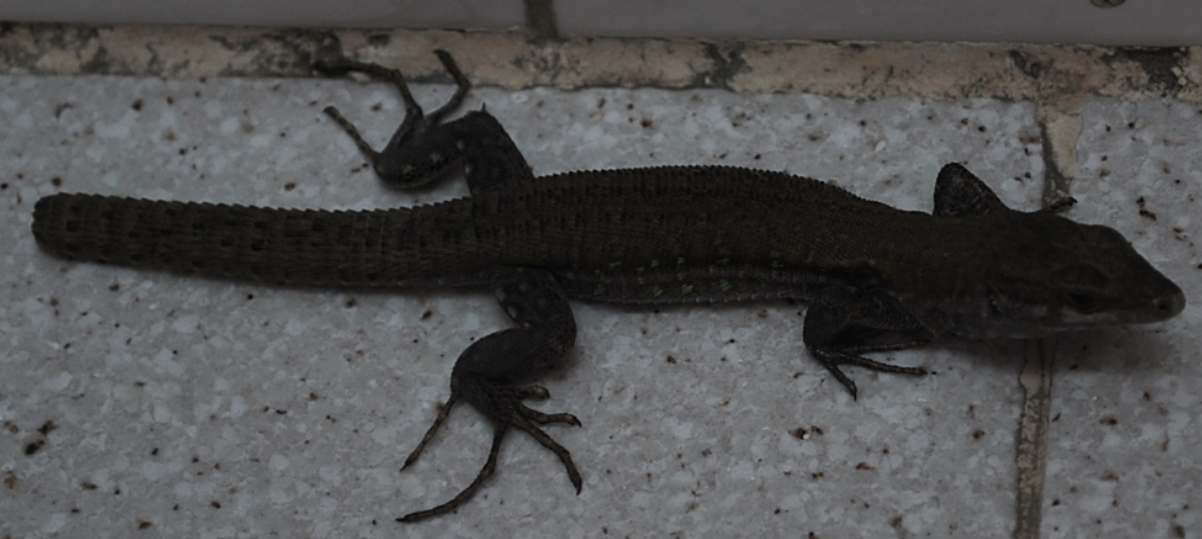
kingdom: Animalia
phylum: Chordata
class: Squamata
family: Lacertidae
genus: Gallotia
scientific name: Gallotia atlantica
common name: Atlantic lizard
